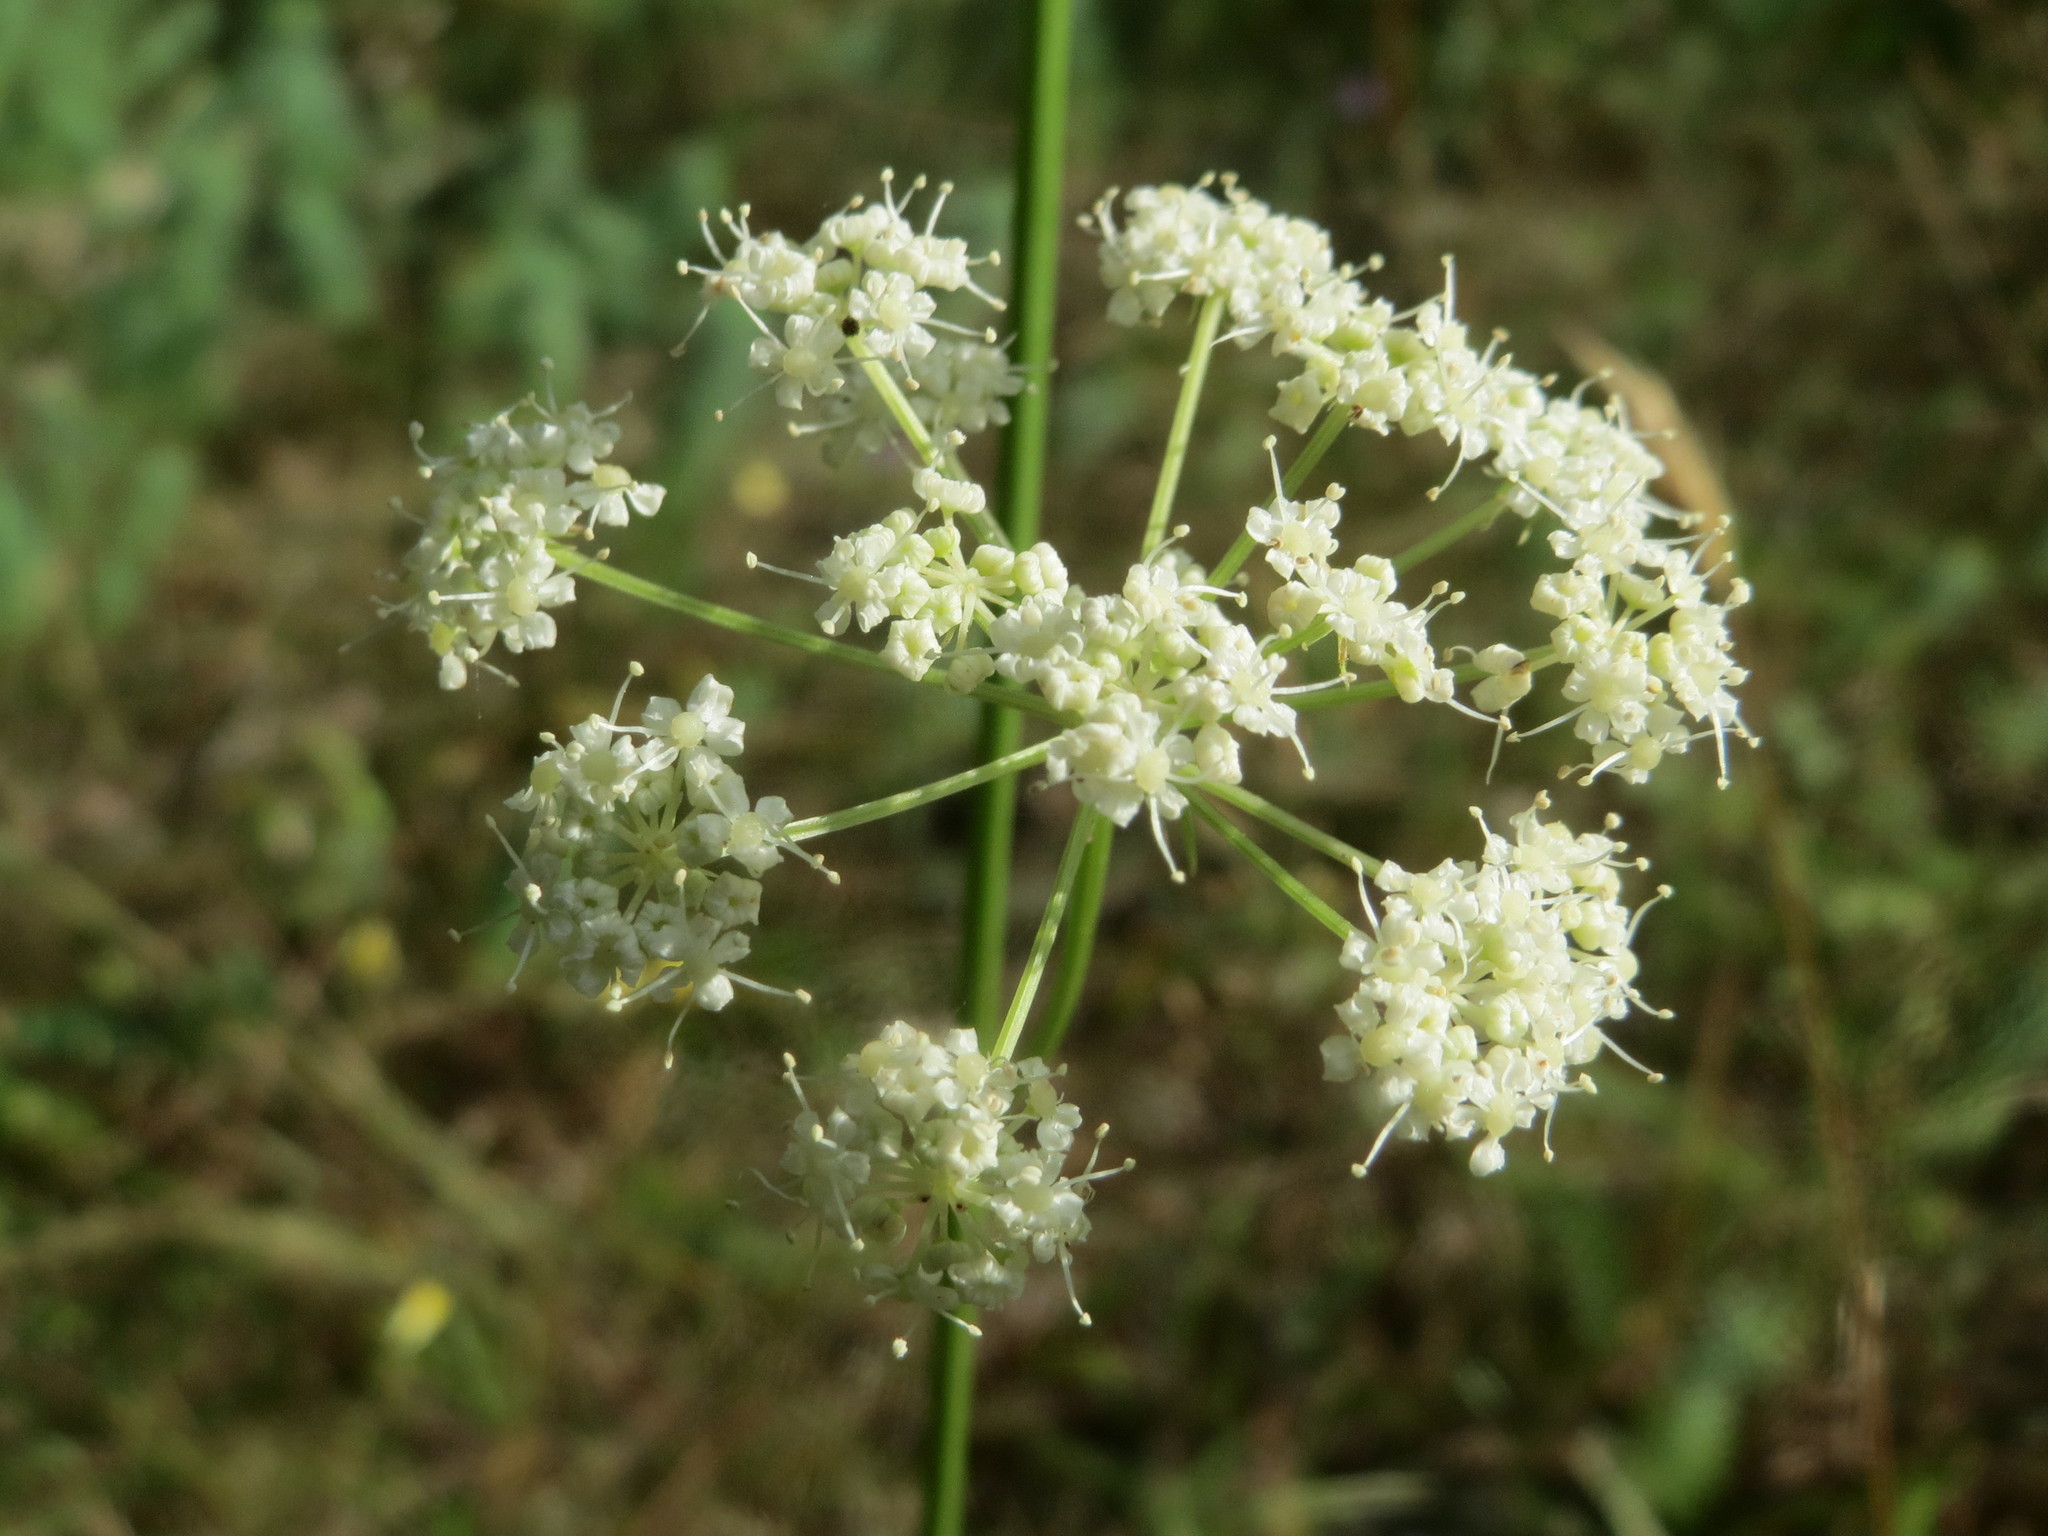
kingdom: Plantae
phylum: Tracheophyta
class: Magnoliopsida
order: Apiales
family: Apiaceae
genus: Oreoselinum
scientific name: Oreoselinum nigrum
